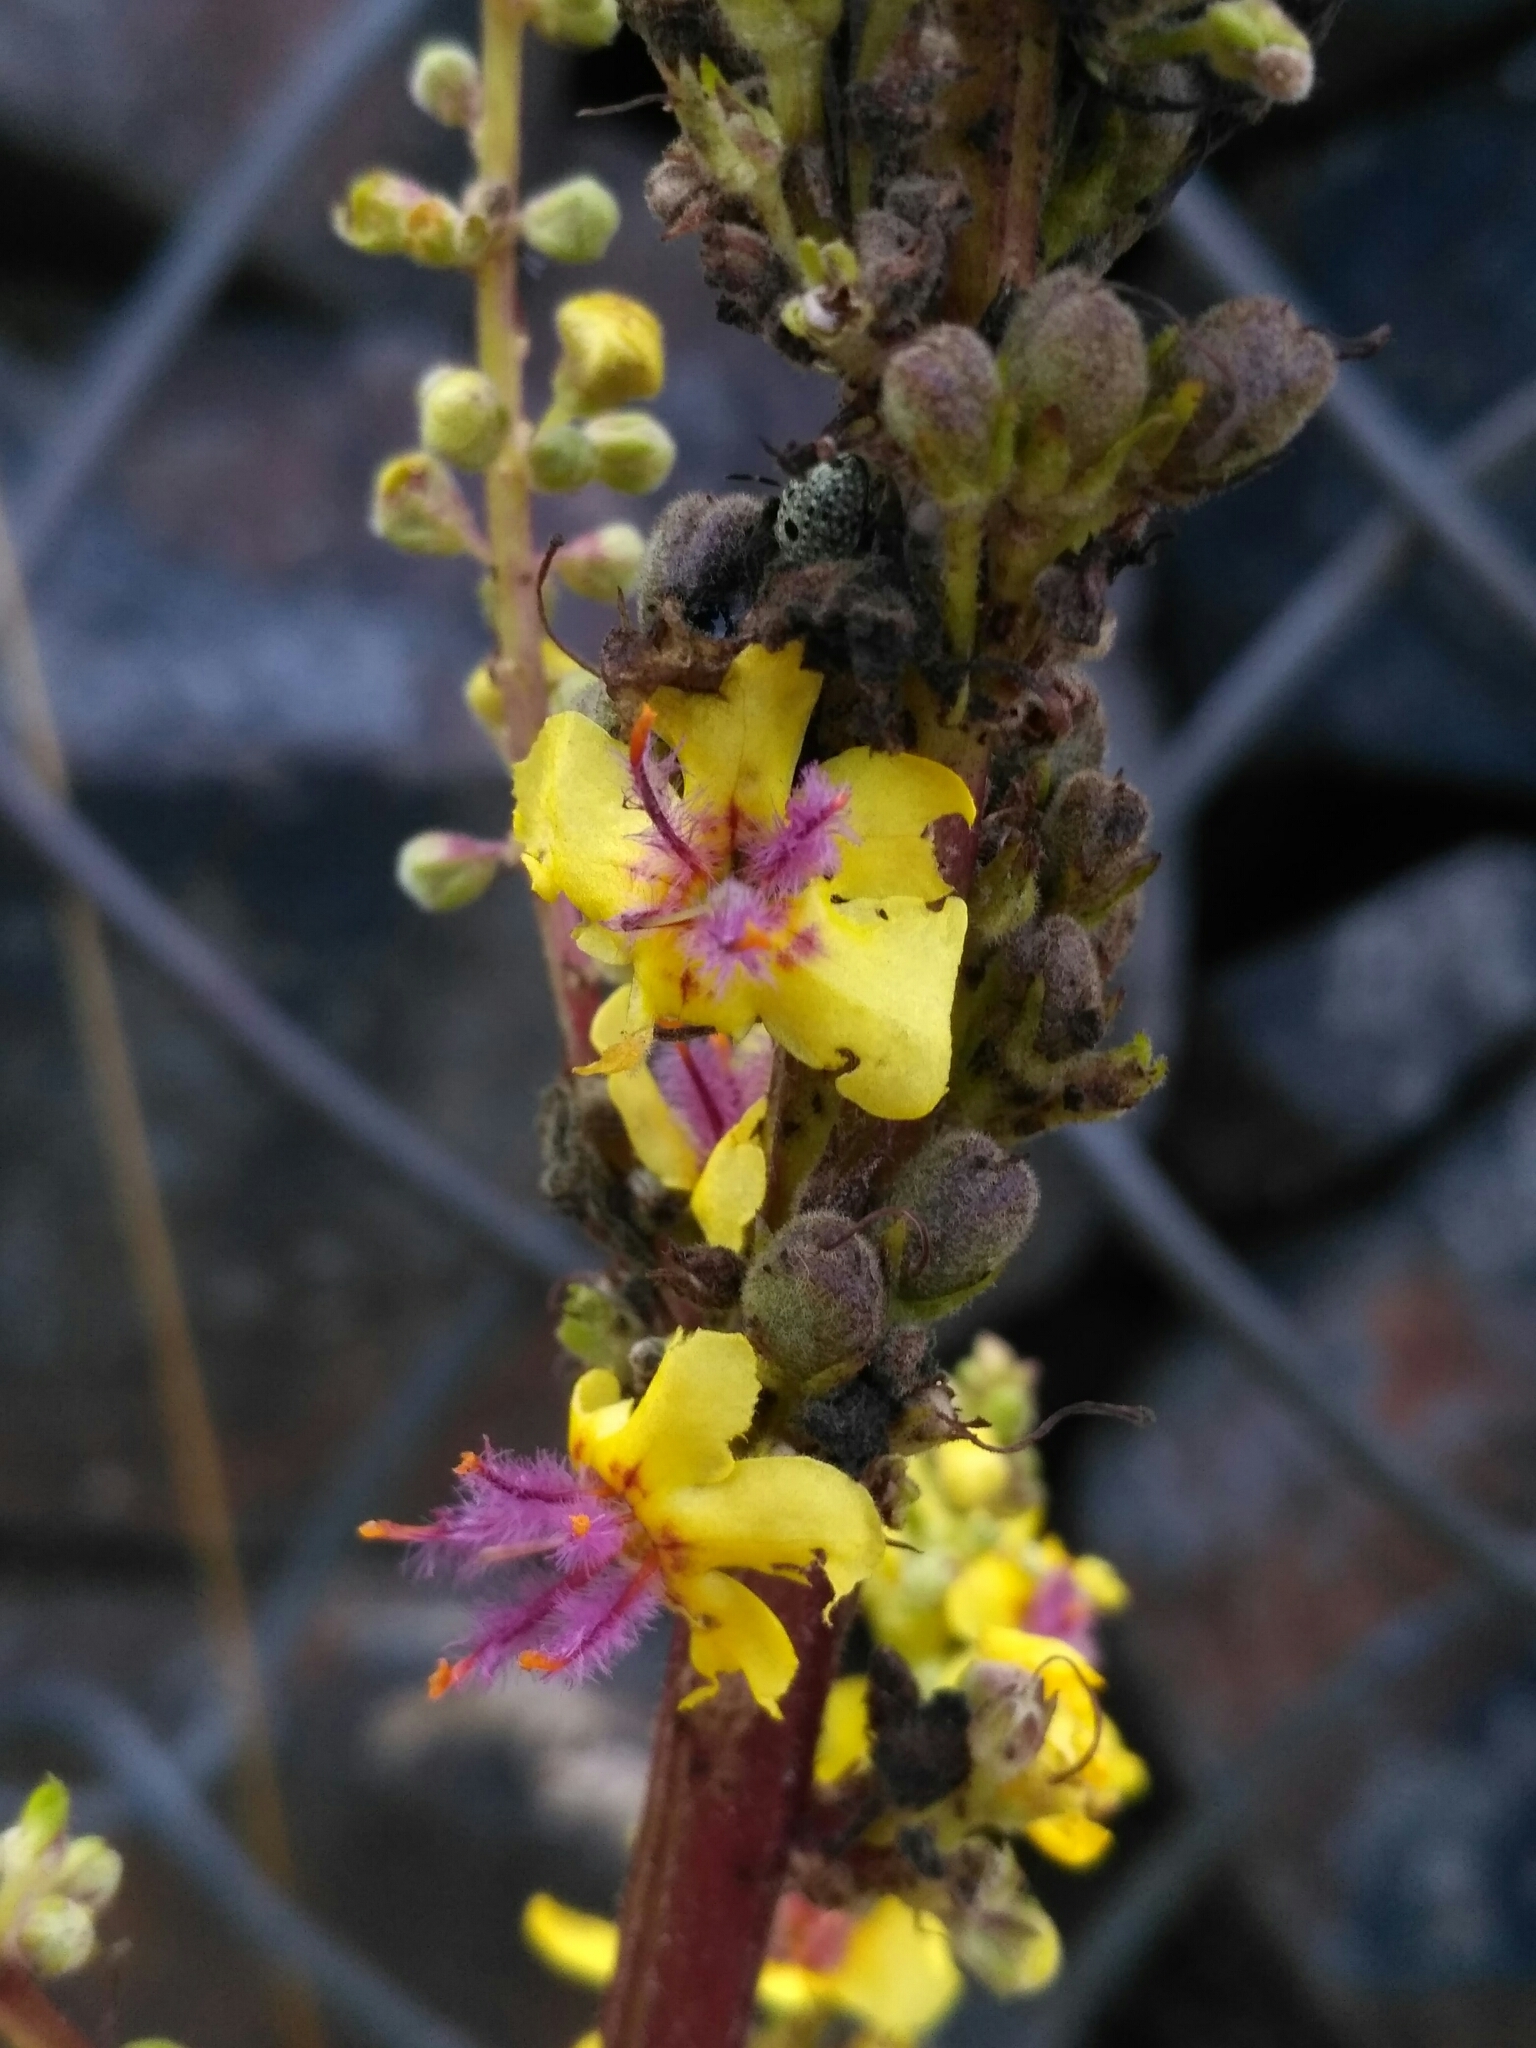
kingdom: Plantae
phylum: Tracheophyta
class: Magnoliopsida
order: Lamiales
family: Scrophulariaceae
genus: Verbascum
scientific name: Verbascum nigrum
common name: Dark mullein
